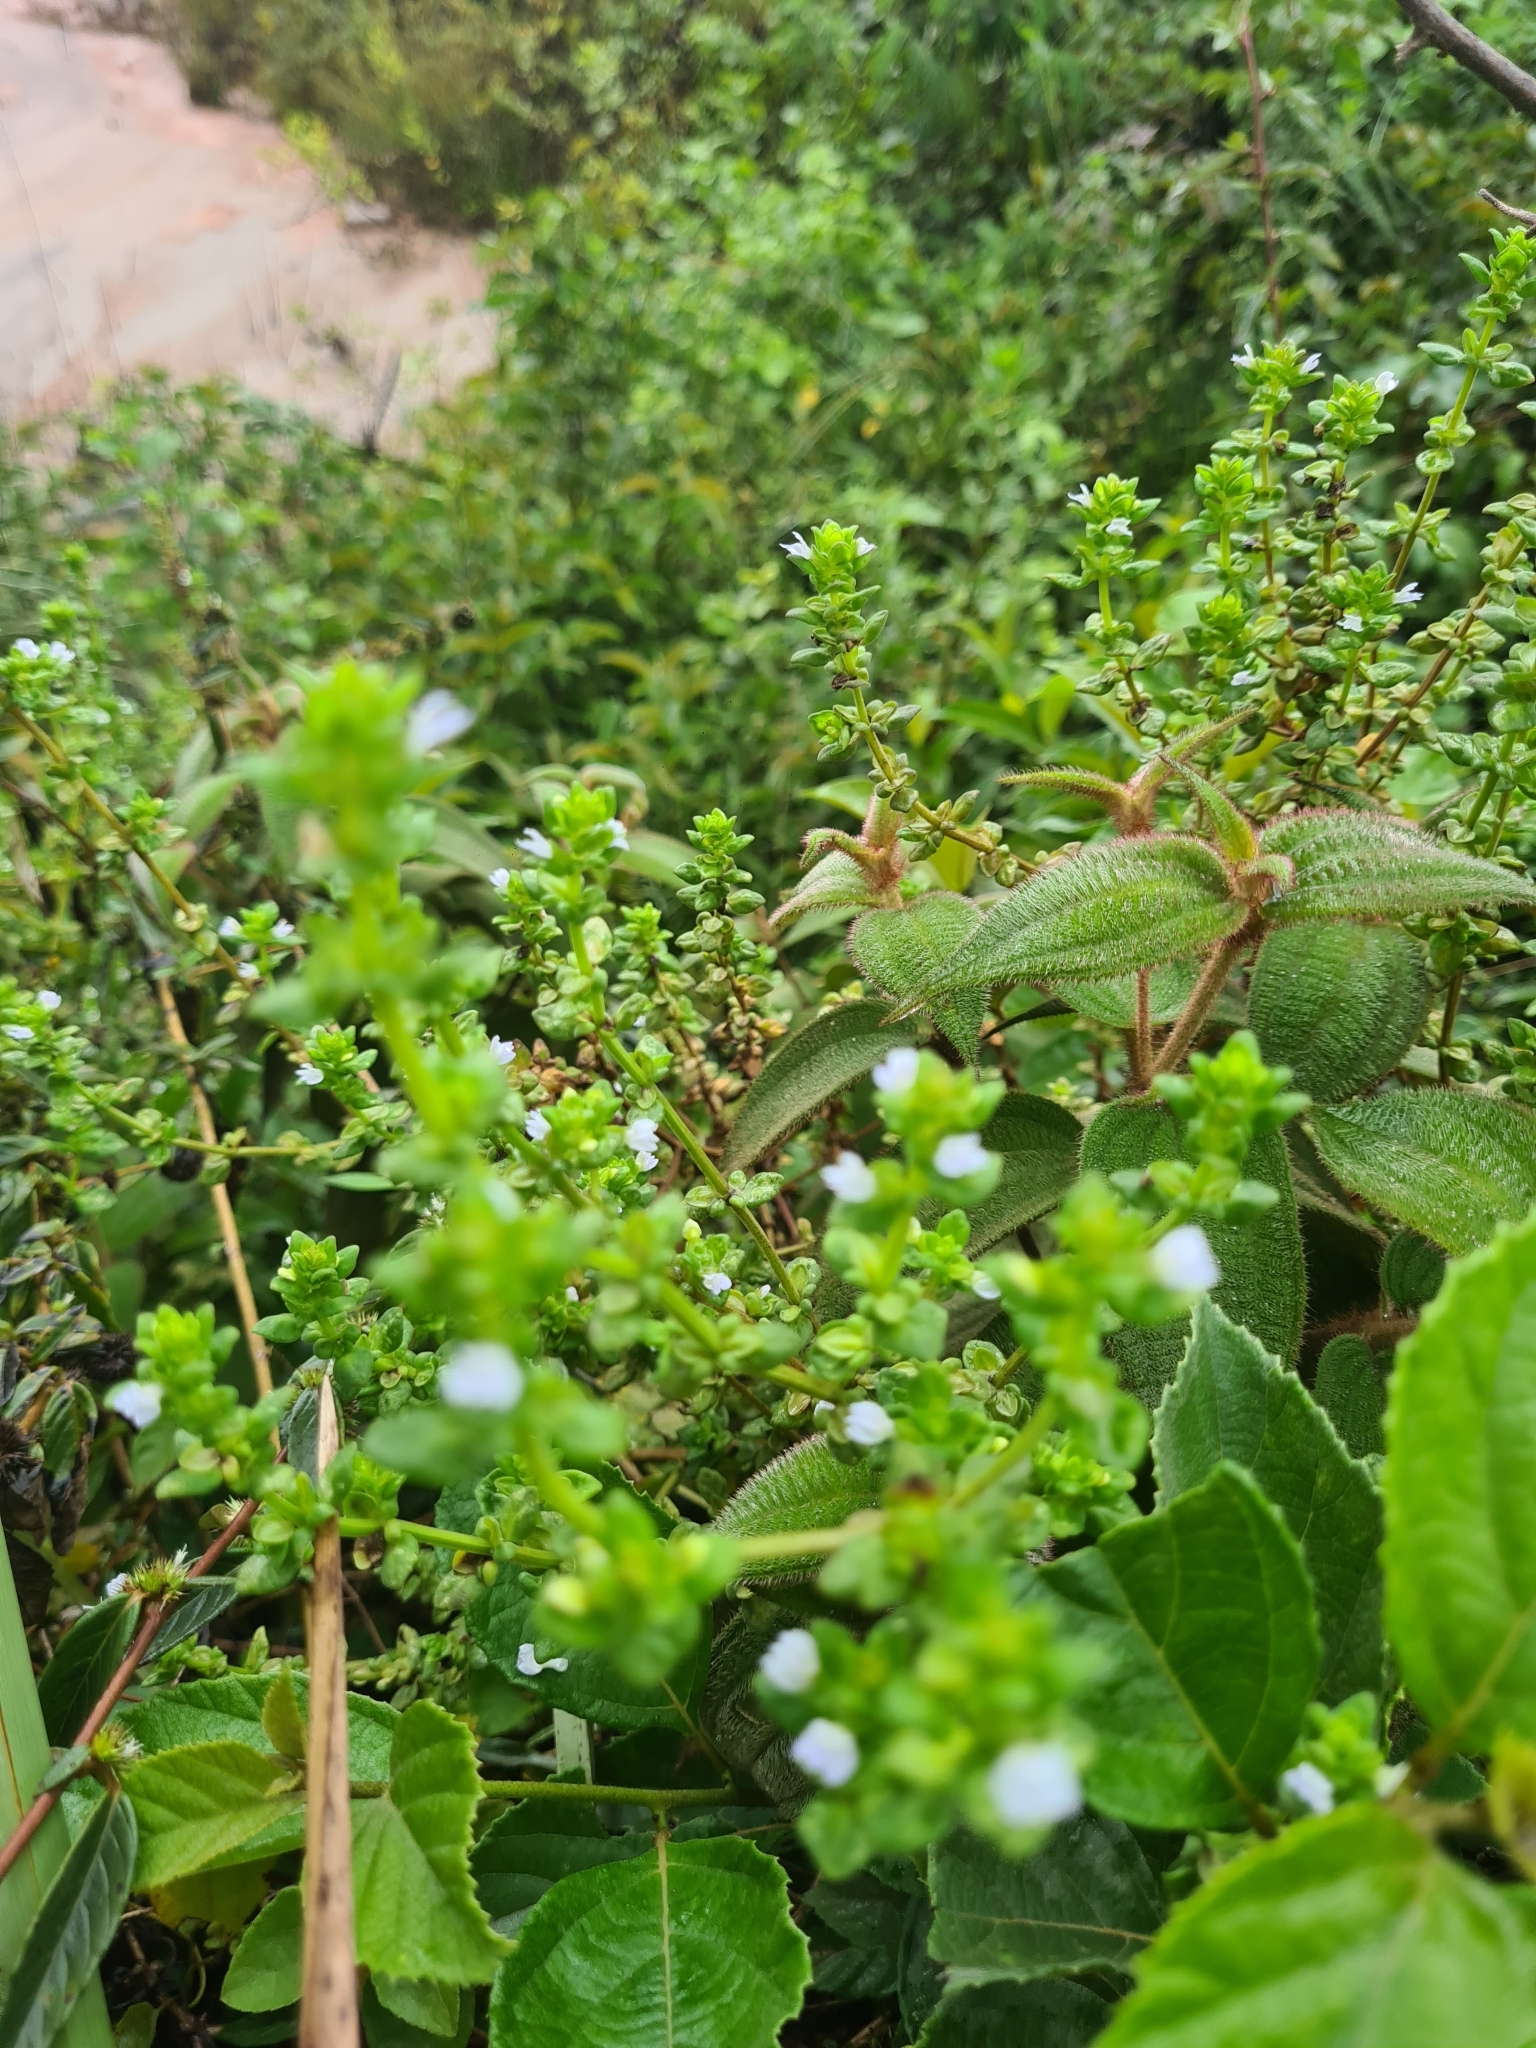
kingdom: Plantae
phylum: Tracheophyta
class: Magnoliopsida
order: Lamiales
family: Plantaginaceae
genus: Matourea
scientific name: Matourea scutellarioides
